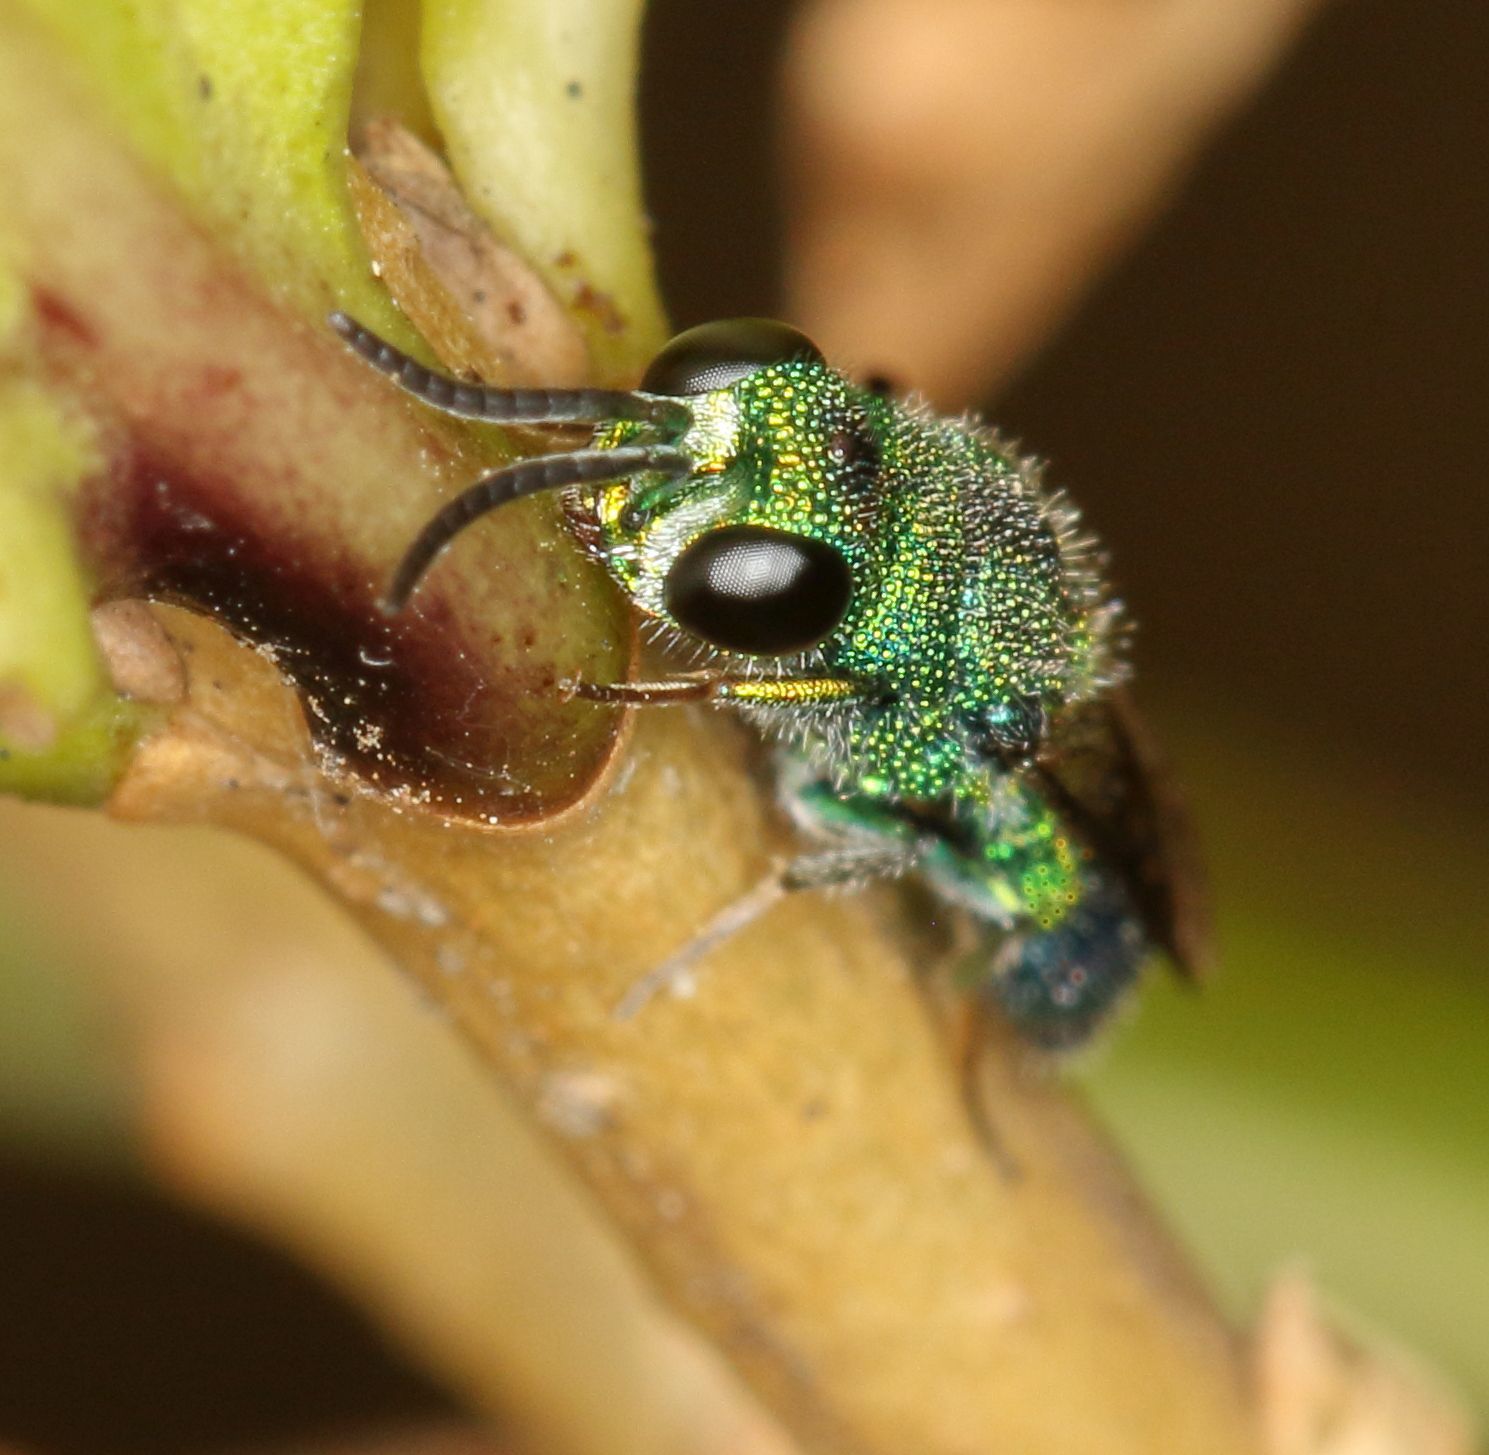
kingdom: Animalia
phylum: Arthropoda
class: Insecta
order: Hymenoptera
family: Chrysididae
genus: Trichrysis
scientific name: Trichrysis
